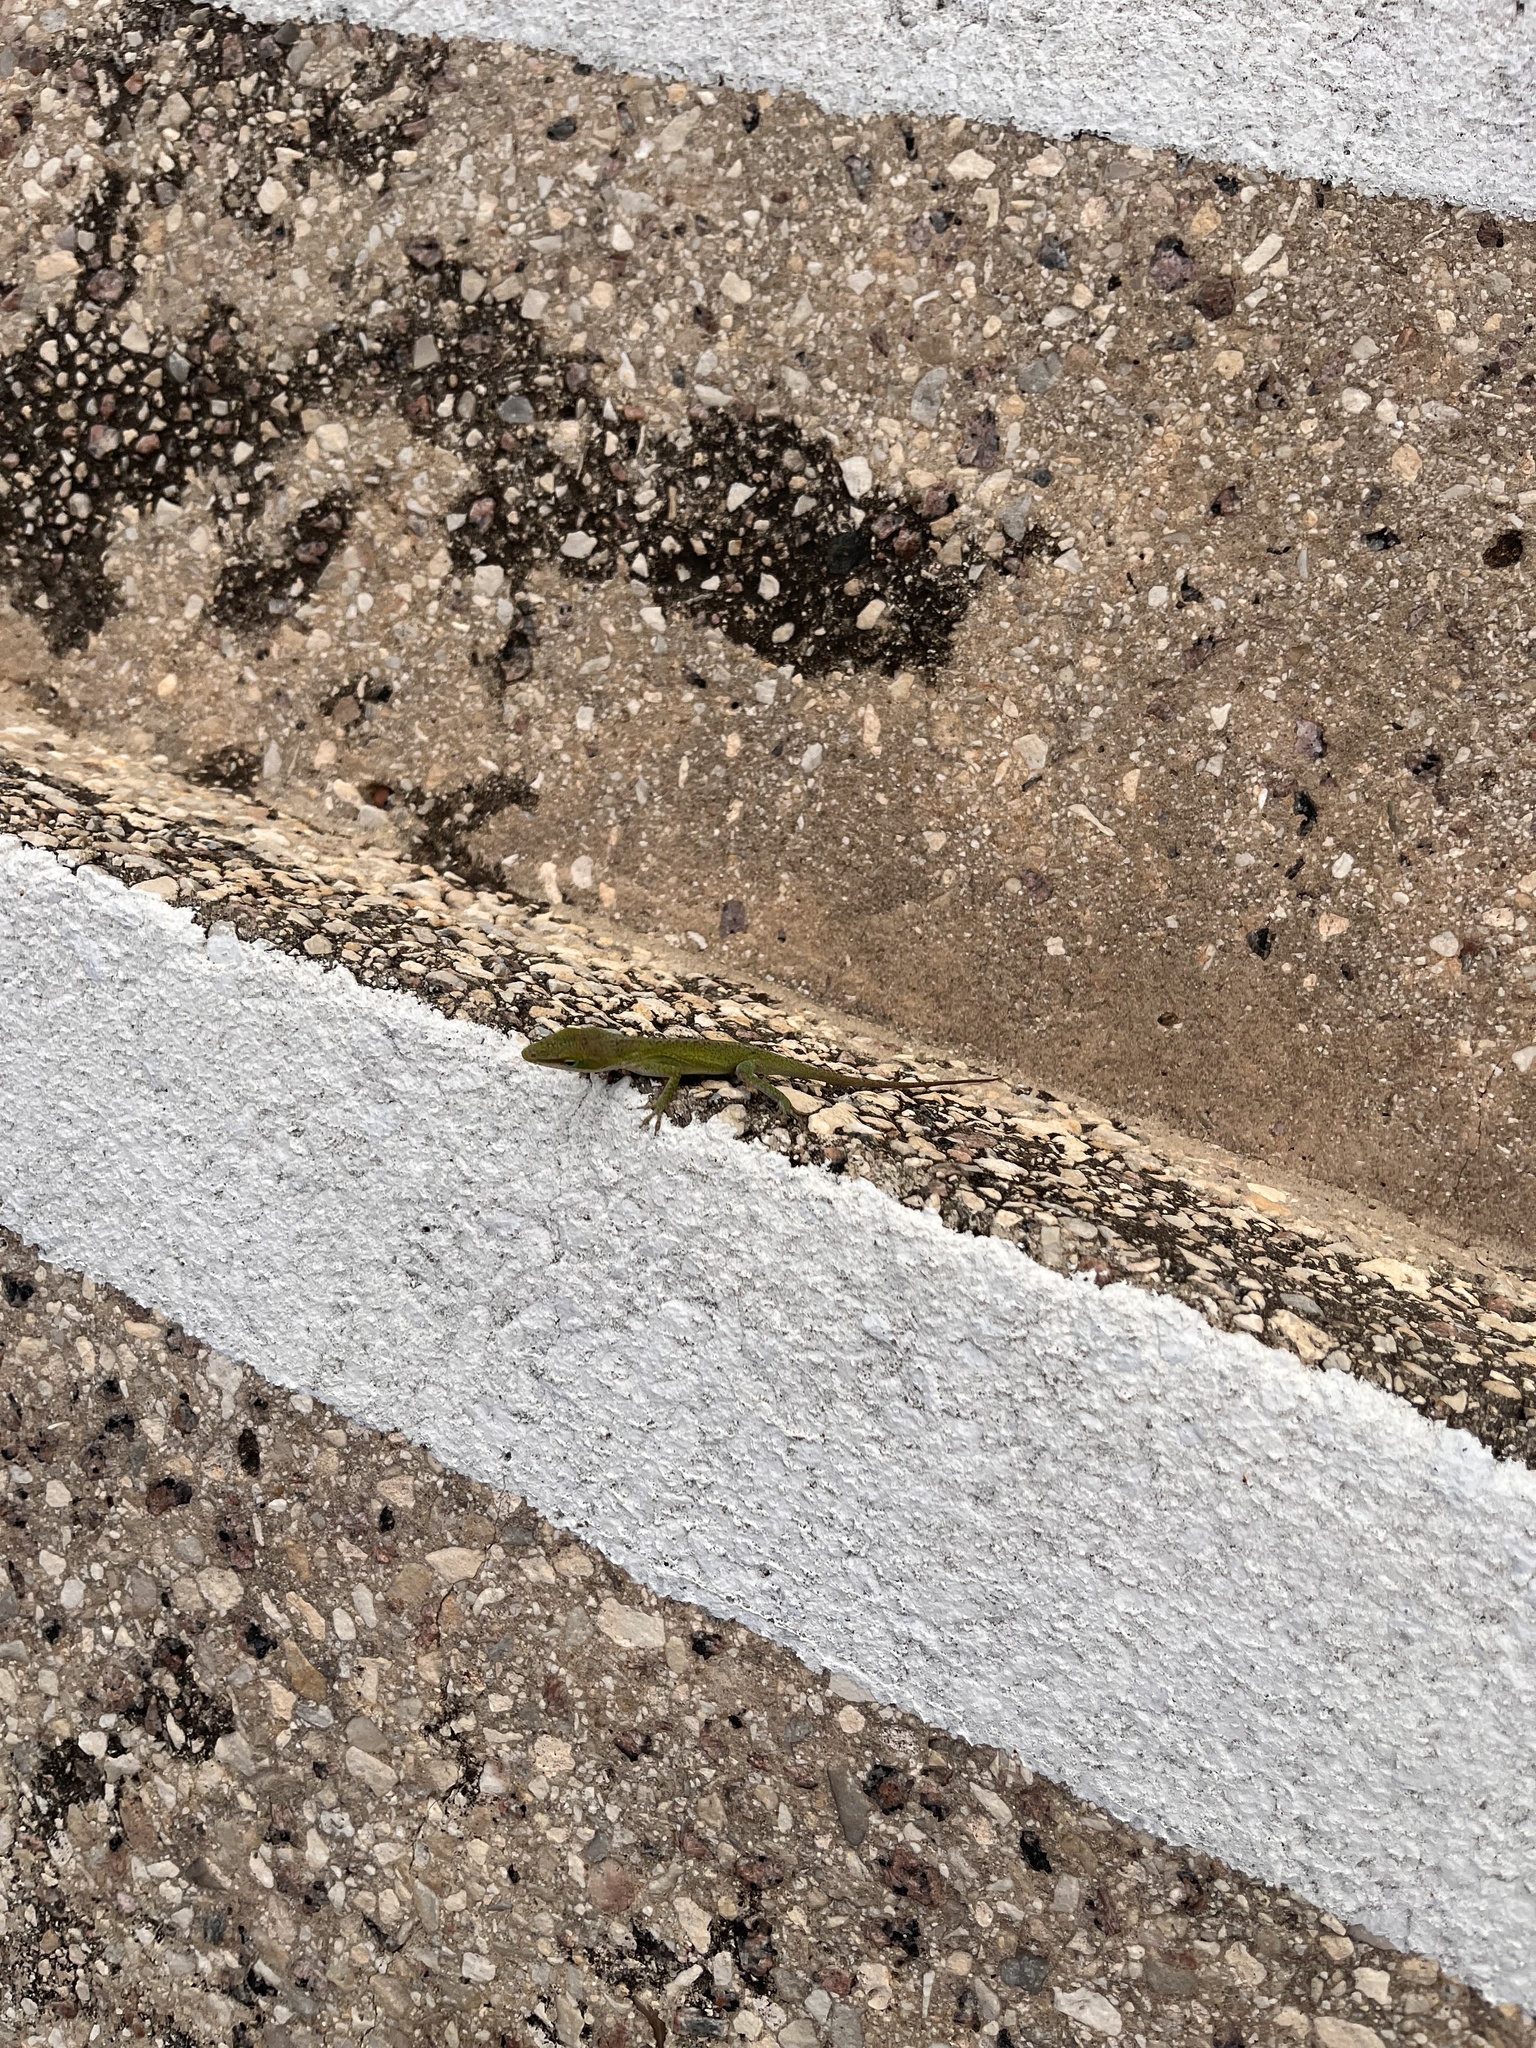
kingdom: Animalia
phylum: Chordata
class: Squamata
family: Dactyloidae
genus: Anolis
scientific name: Anolis carolinensis
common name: Green anole
